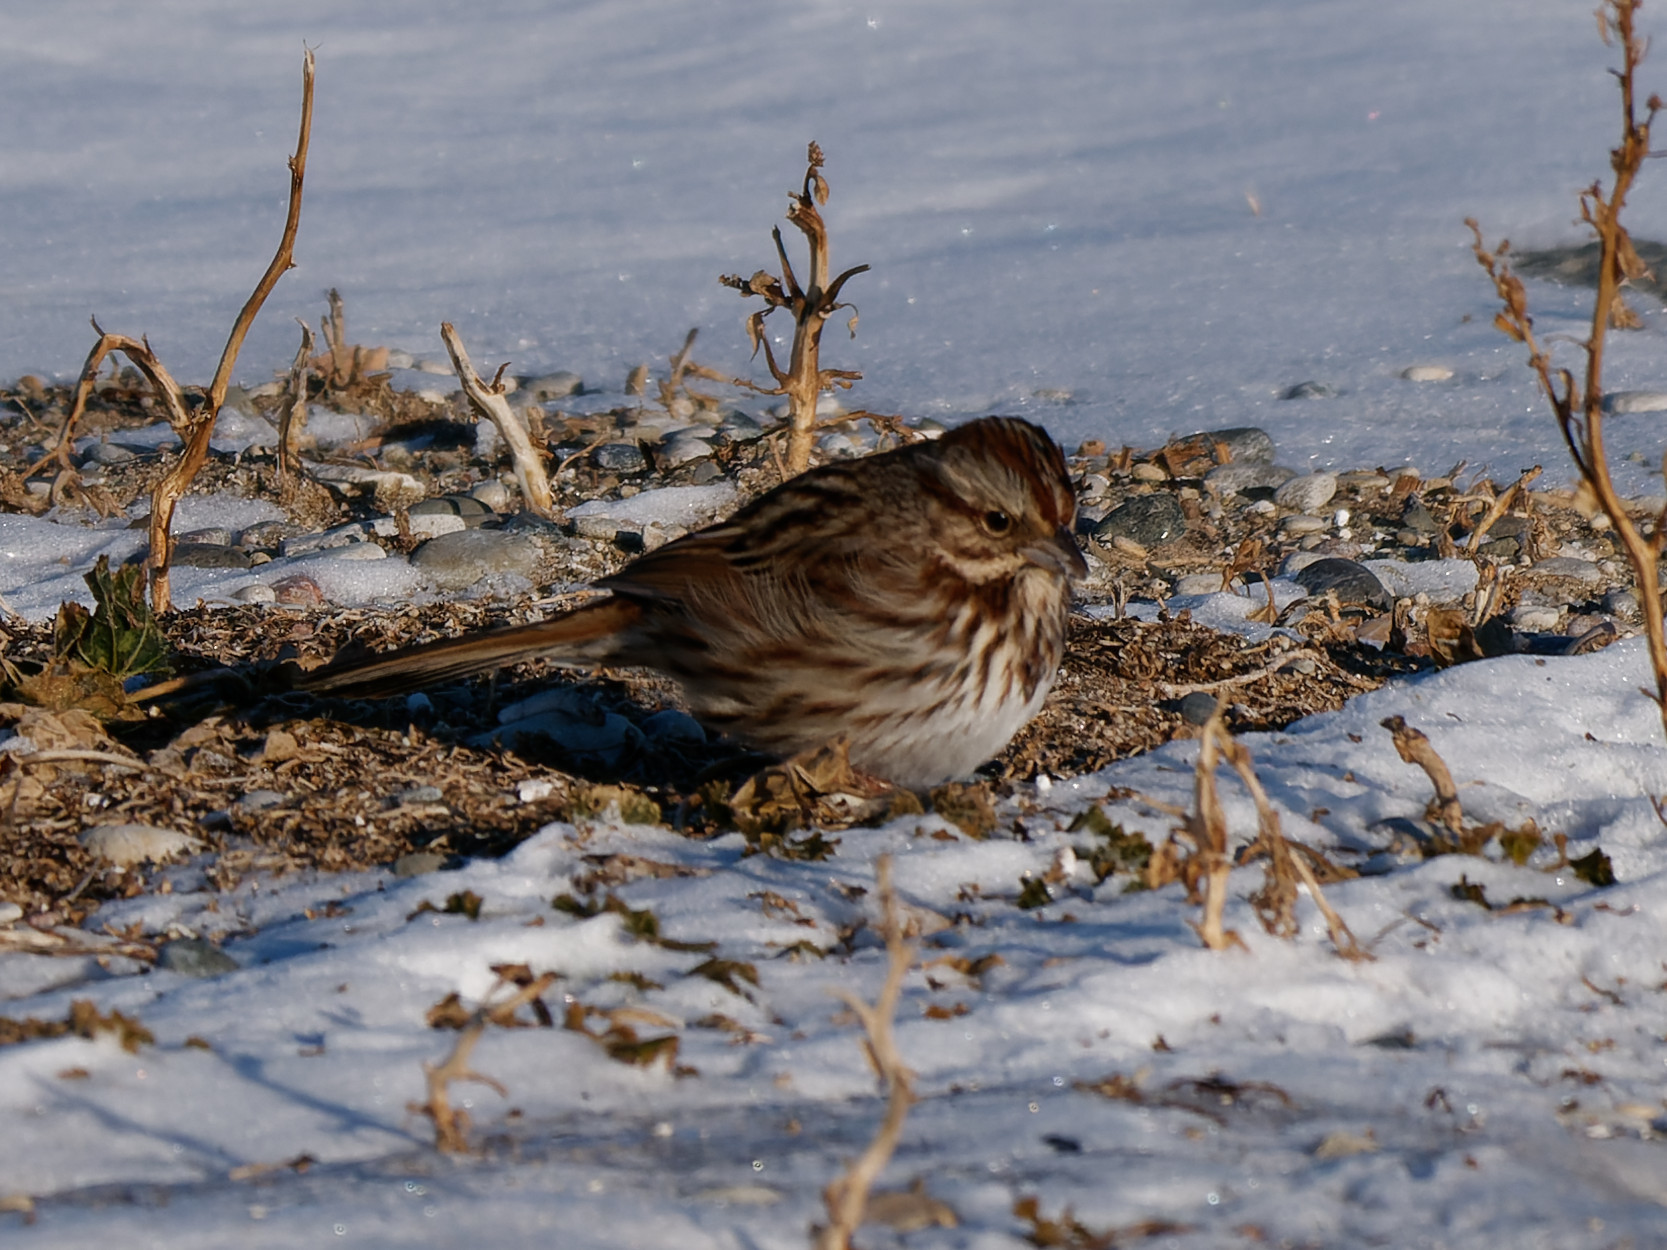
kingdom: Animalia
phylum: Chordata
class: Aves
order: Passeriformes
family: Passerellidae
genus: Melospiza
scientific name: Melospiza melodia
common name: Song sparrow
